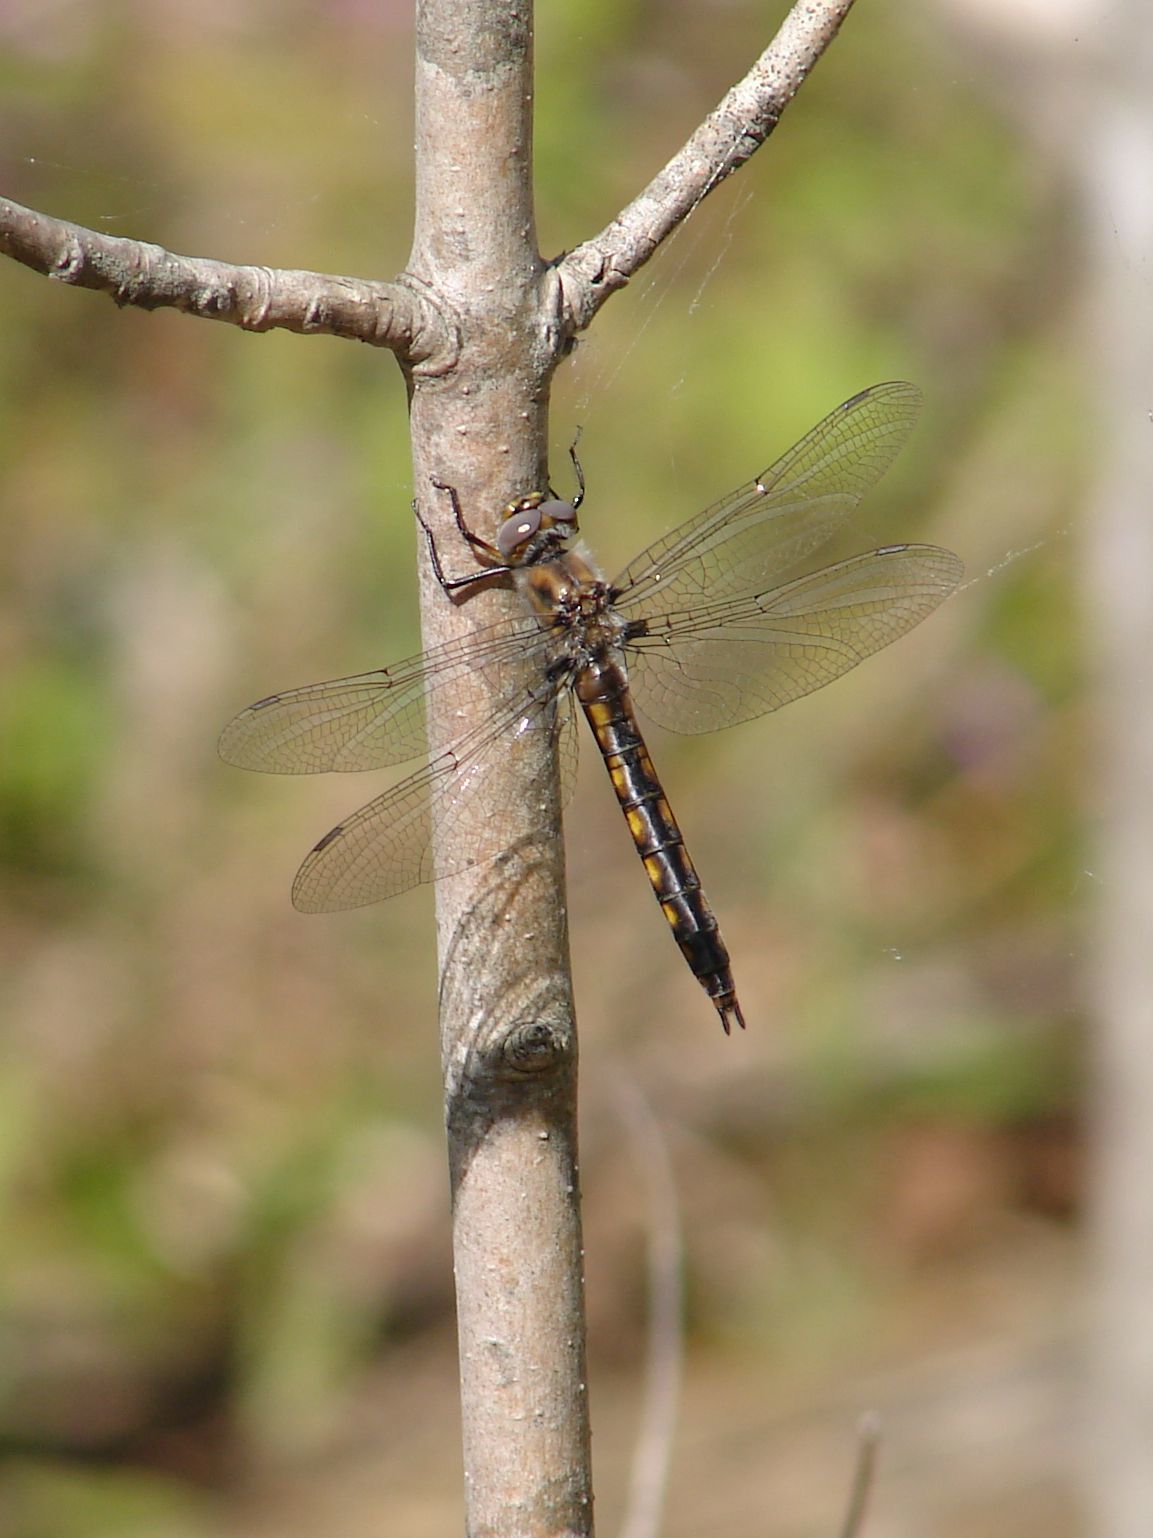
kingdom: Animalia
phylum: Arthropoda
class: Insecta
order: Odonata
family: Corduliidae
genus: Epitheca
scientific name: Epitheca canis
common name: Beaverpond baskettail
